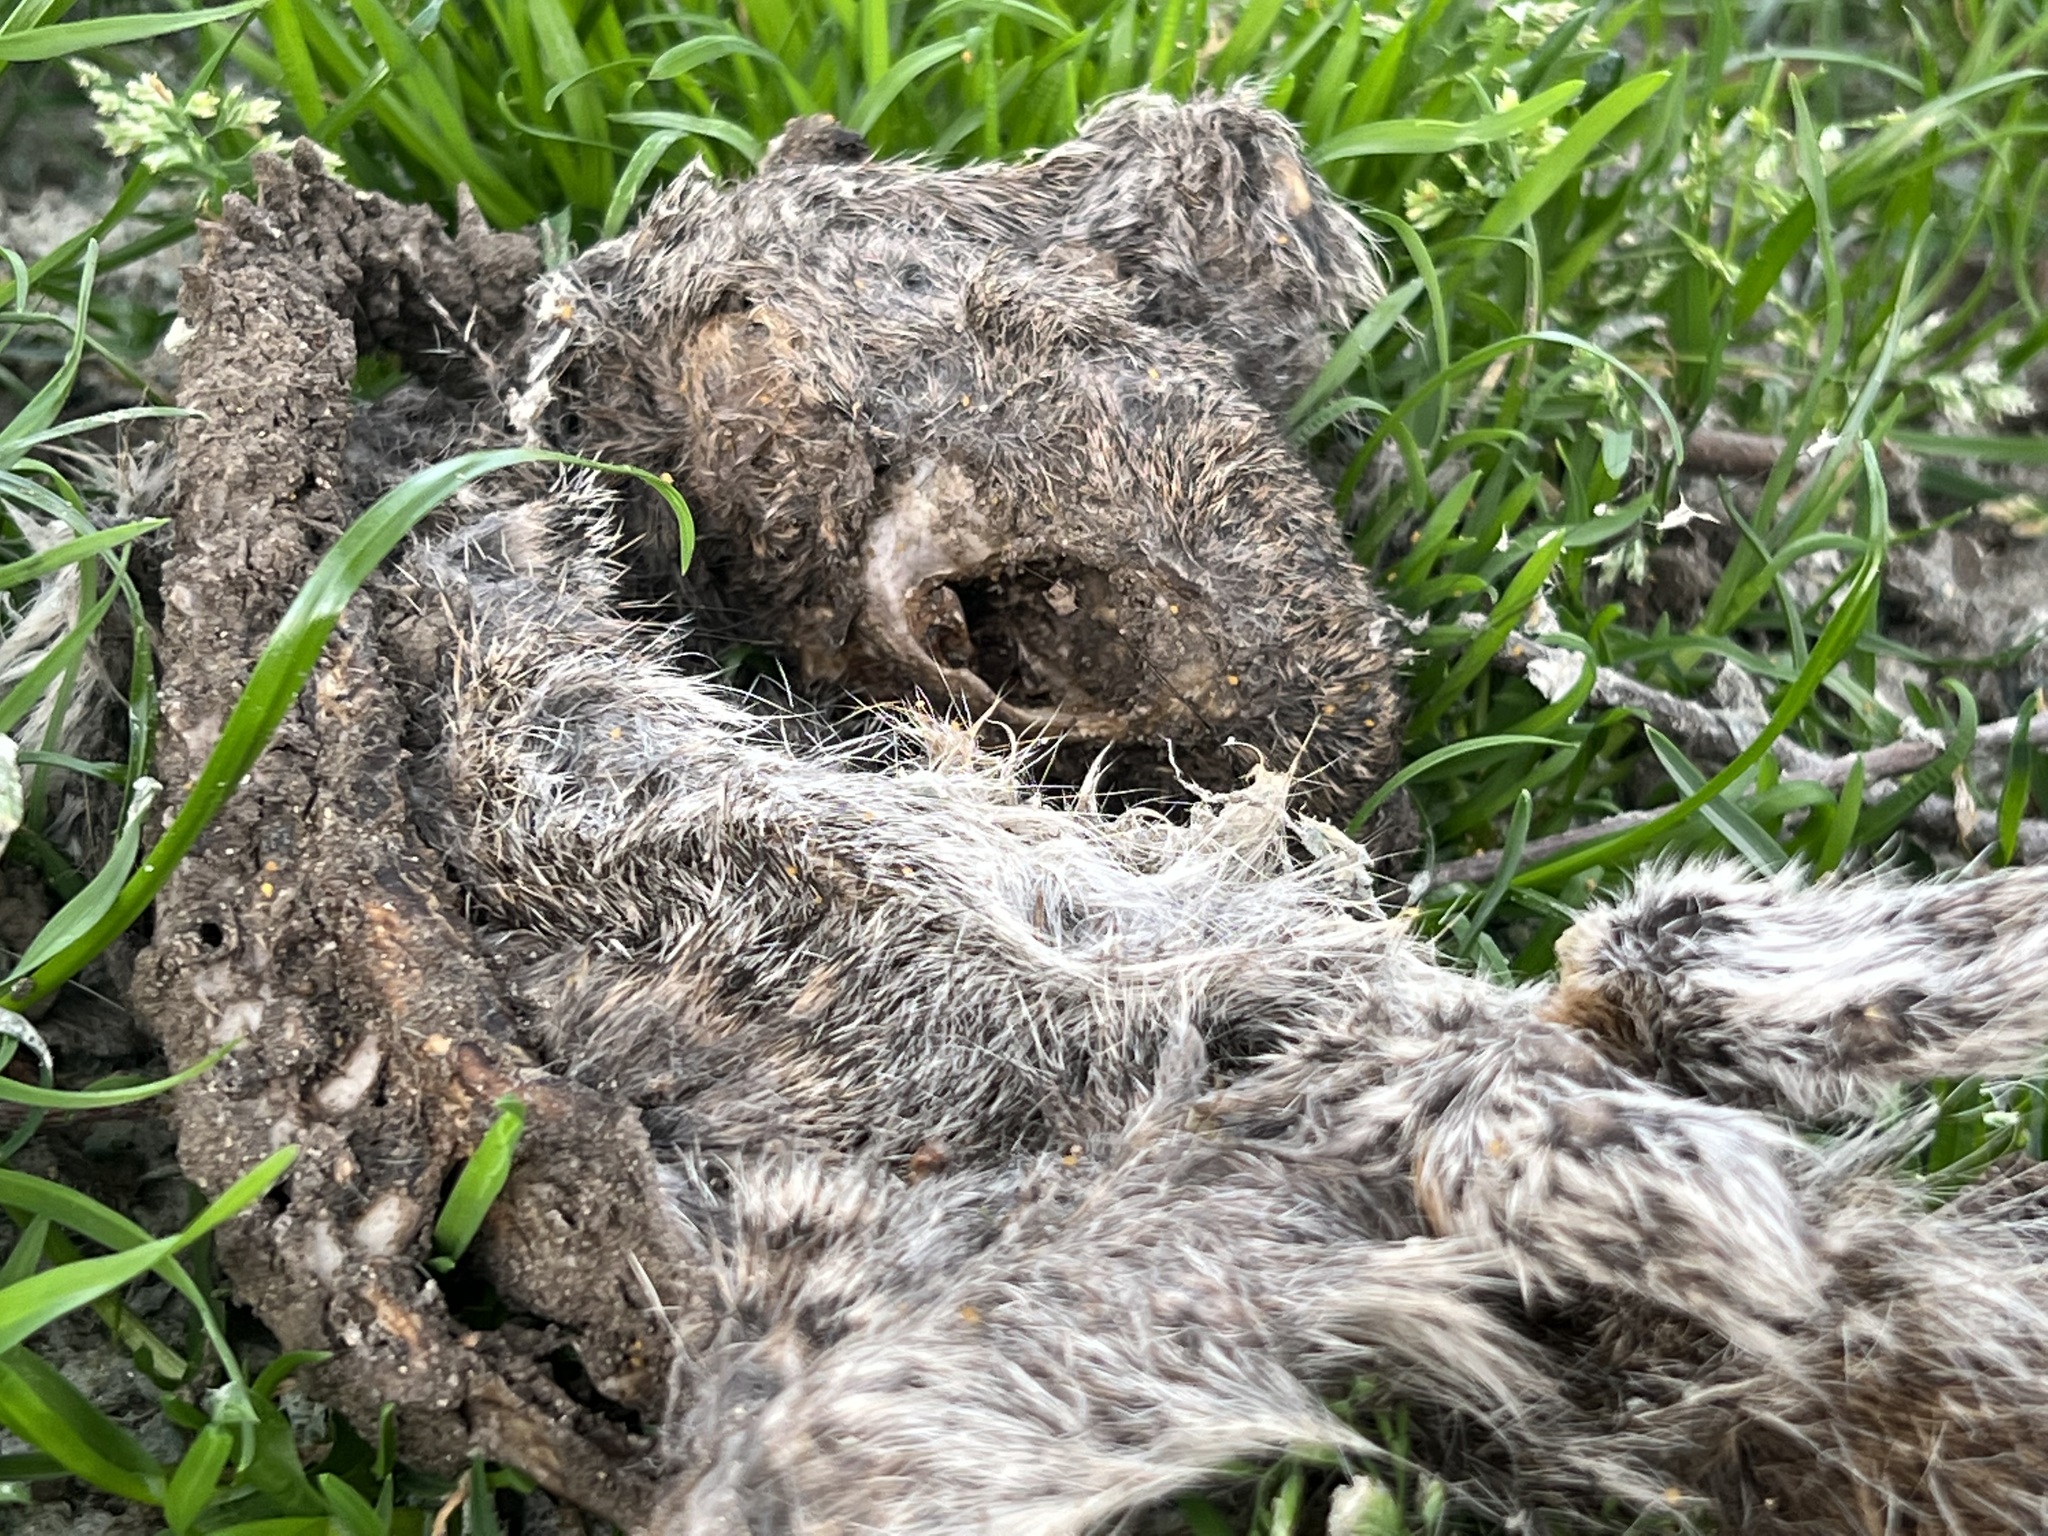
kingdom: Animalia
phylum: Chordata
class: Mammalia
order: Rodentia
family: Sciuridae
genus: Sciurus
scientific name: Sciurus carolinensis
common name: Eastern gray squirrel
